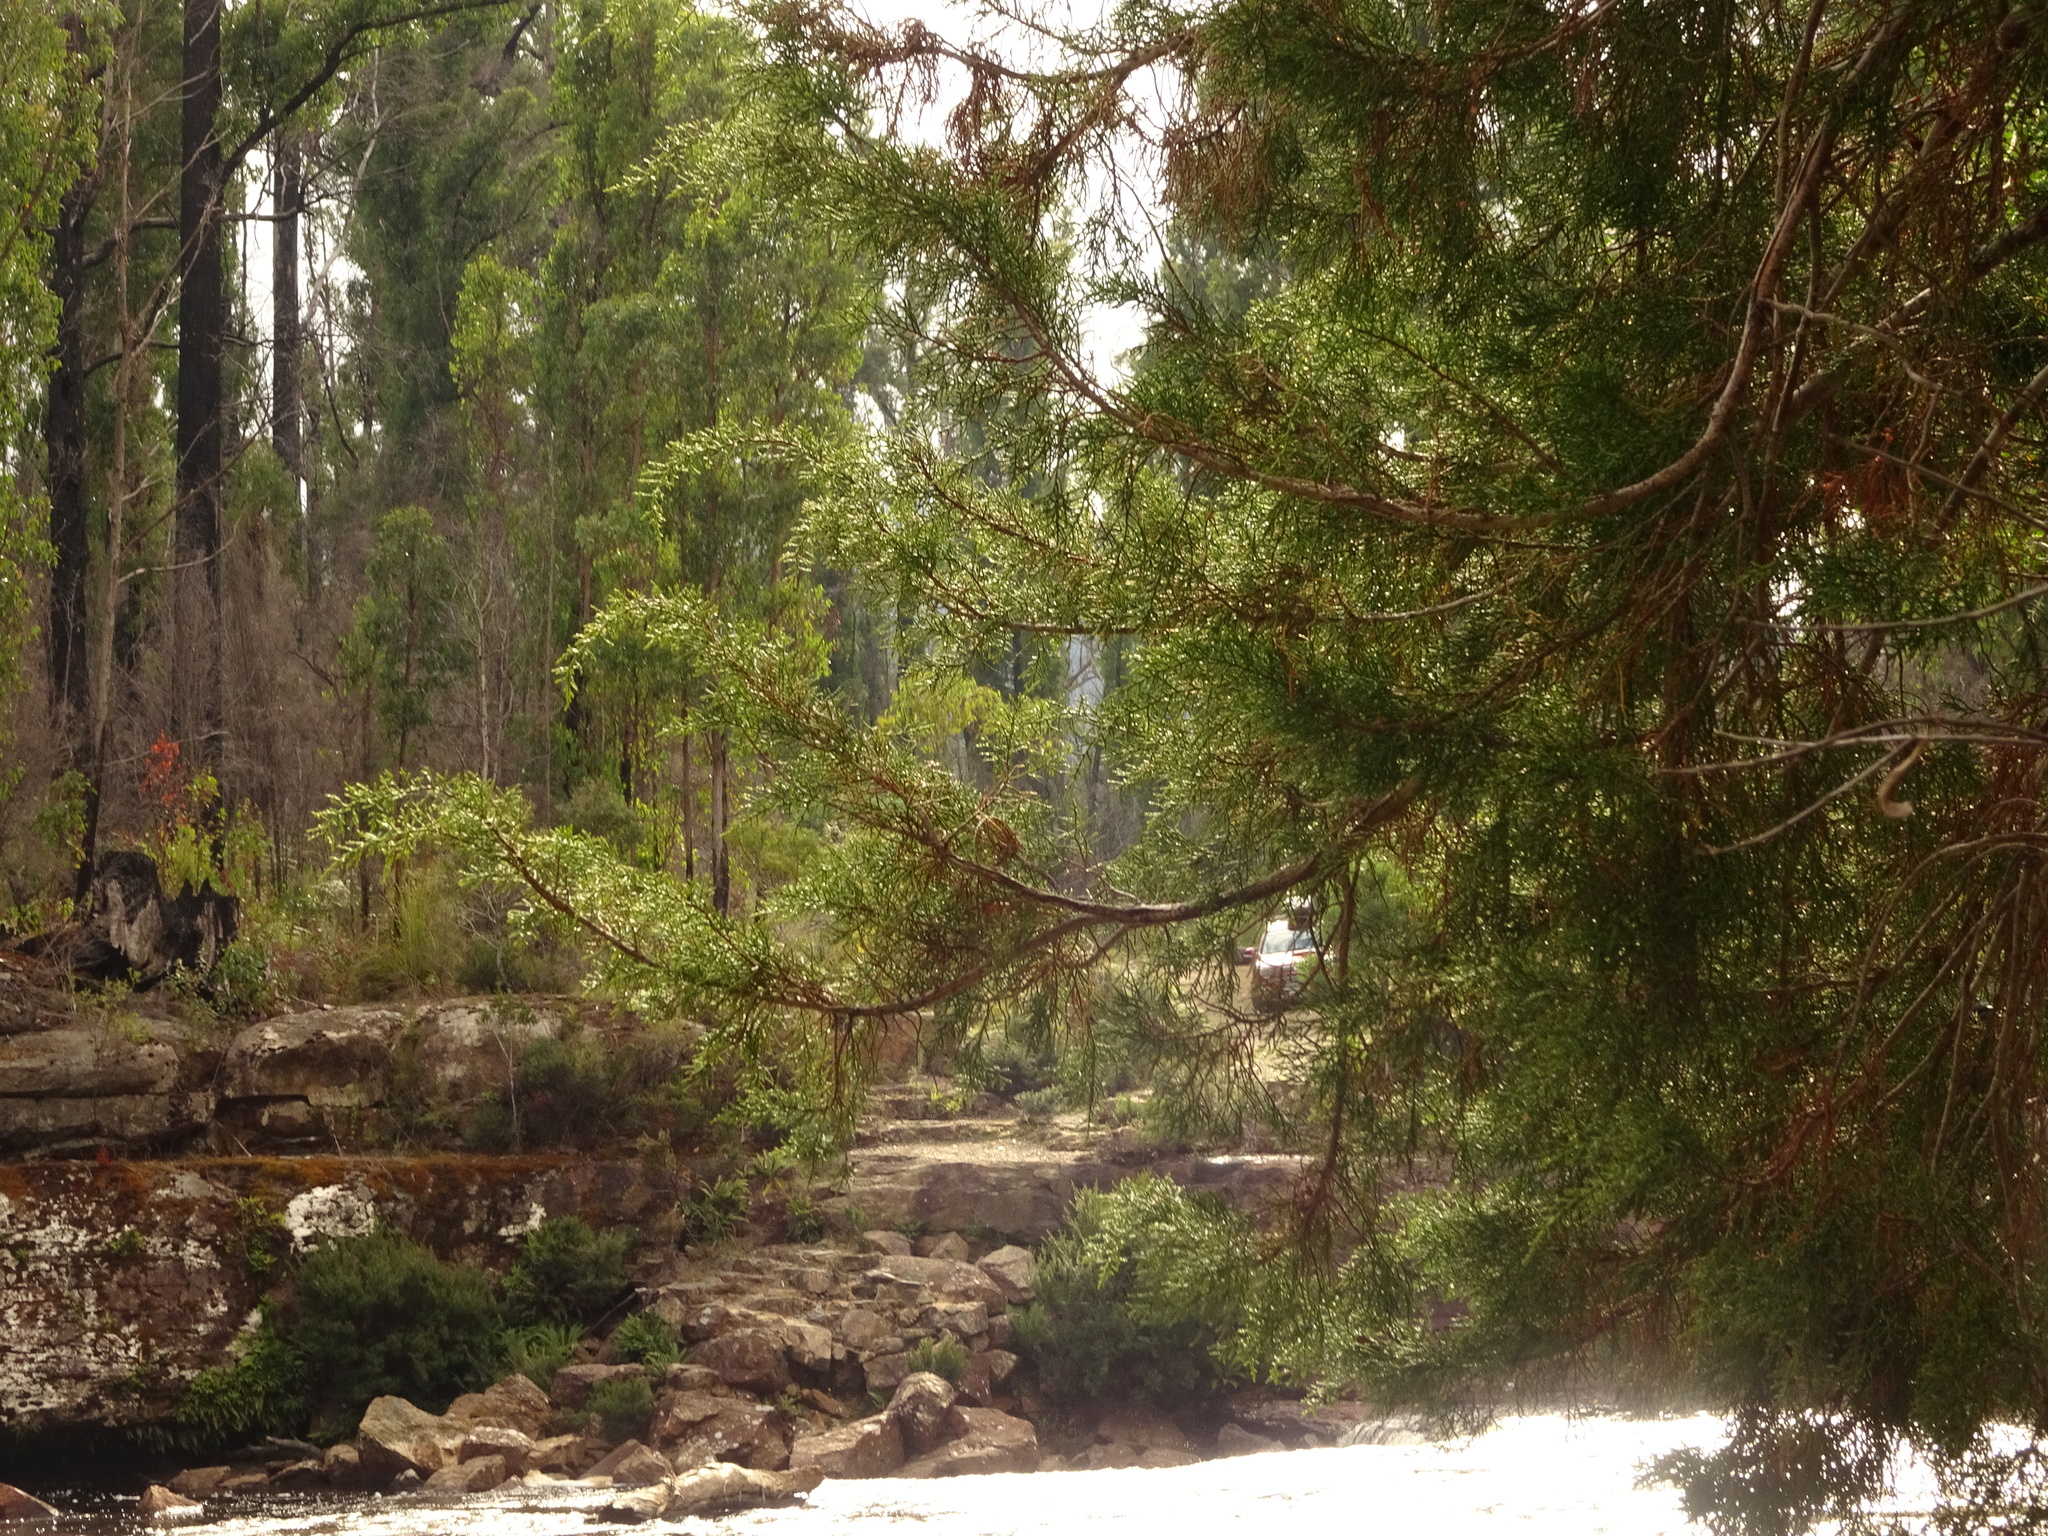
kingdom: Plantae
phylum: Tracheophyta
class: Pinopsida
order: Pinales
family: Podocarpaceae
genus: Lagarostrobos
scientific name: Lagarostrobos franklinii
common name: Huon pine
